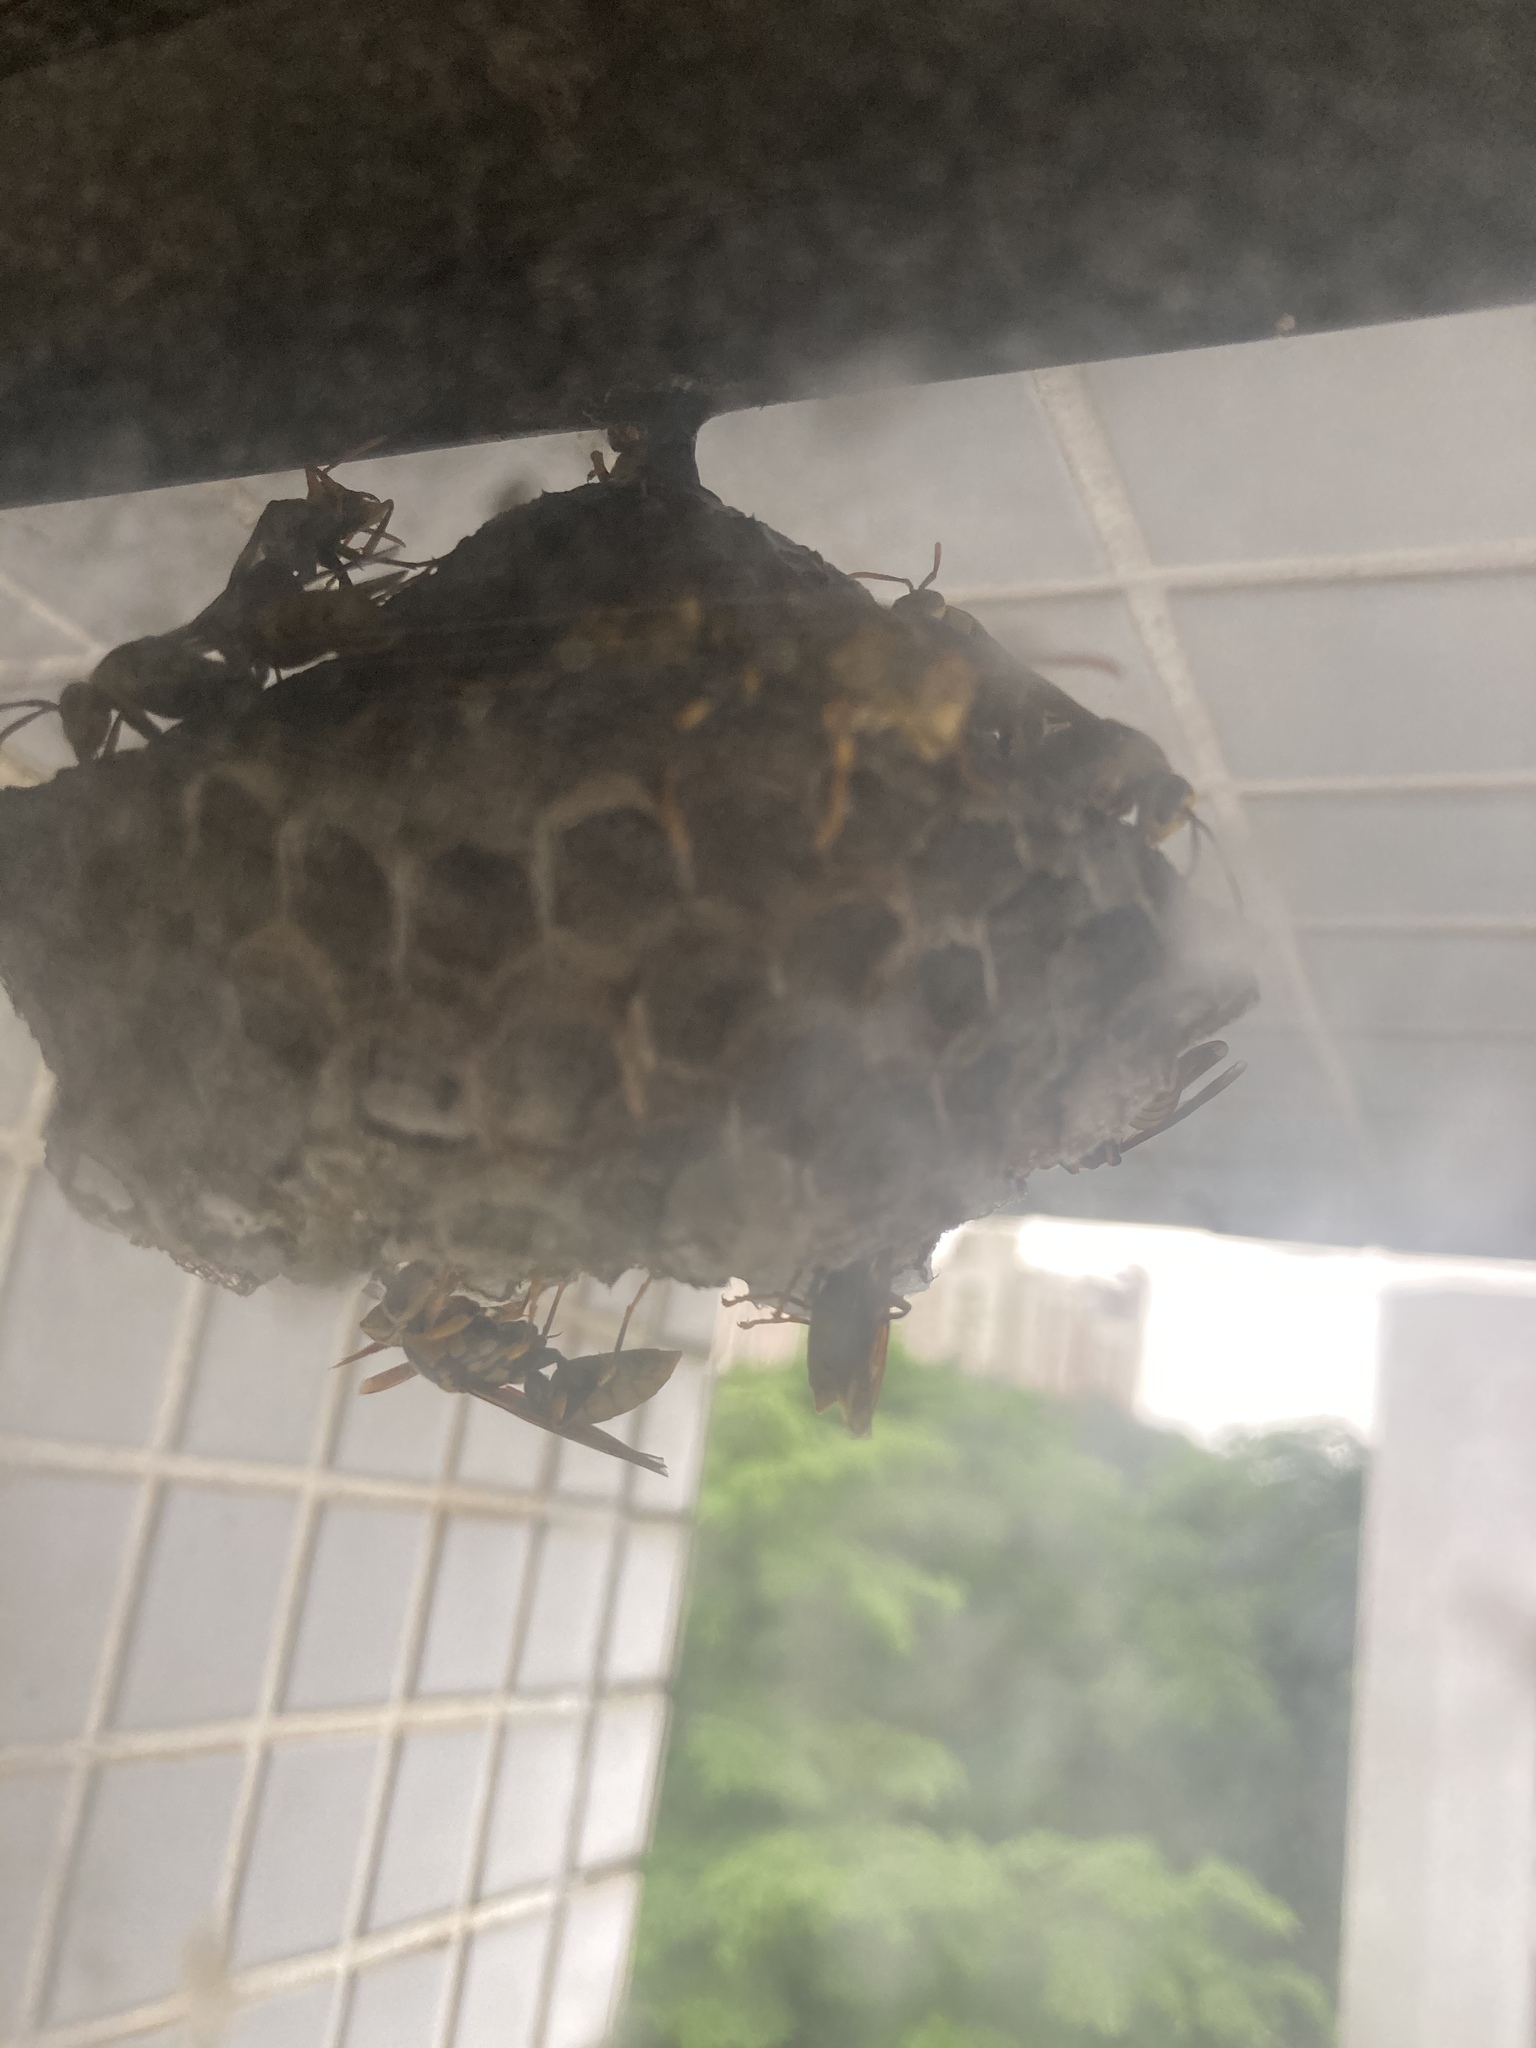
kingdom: Animalia
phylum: Arthropoda
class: Insecta
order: Hymenoptera
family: Eumenidae
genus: Polistes
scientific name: Polistes rothneyi
